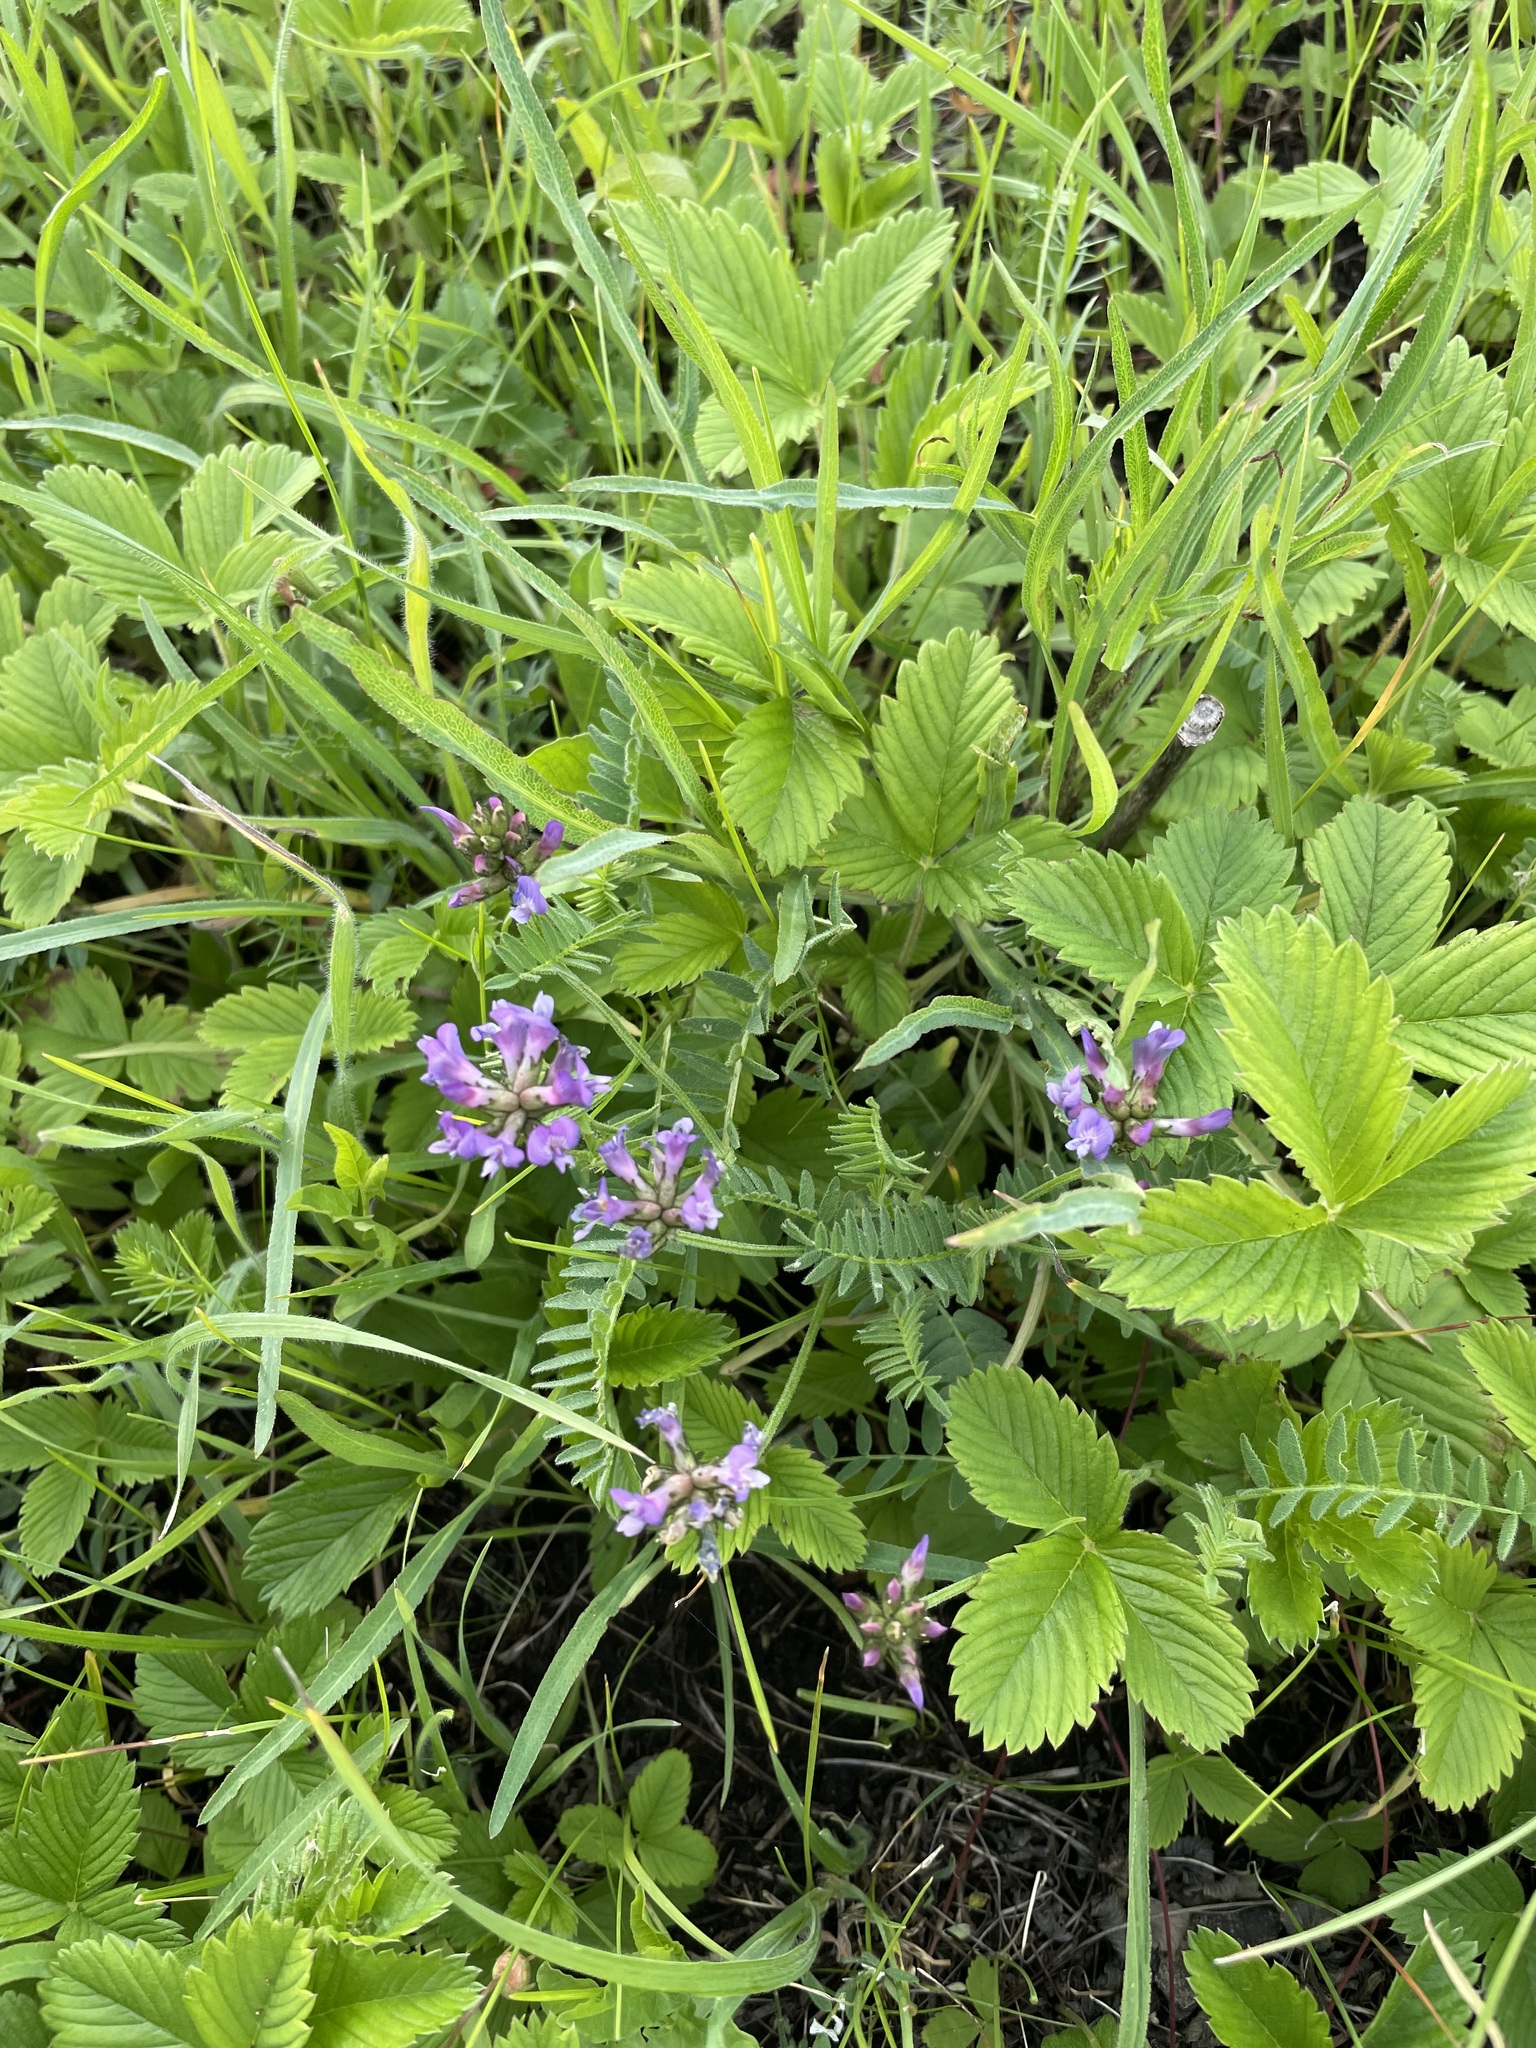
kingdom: Plantae
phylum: Tracheophyta
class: Magnoliopsida
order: Fabales
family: Fabaceae
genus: Astragalus
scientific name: Astragalus danicus
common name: Purple milk-vetch
